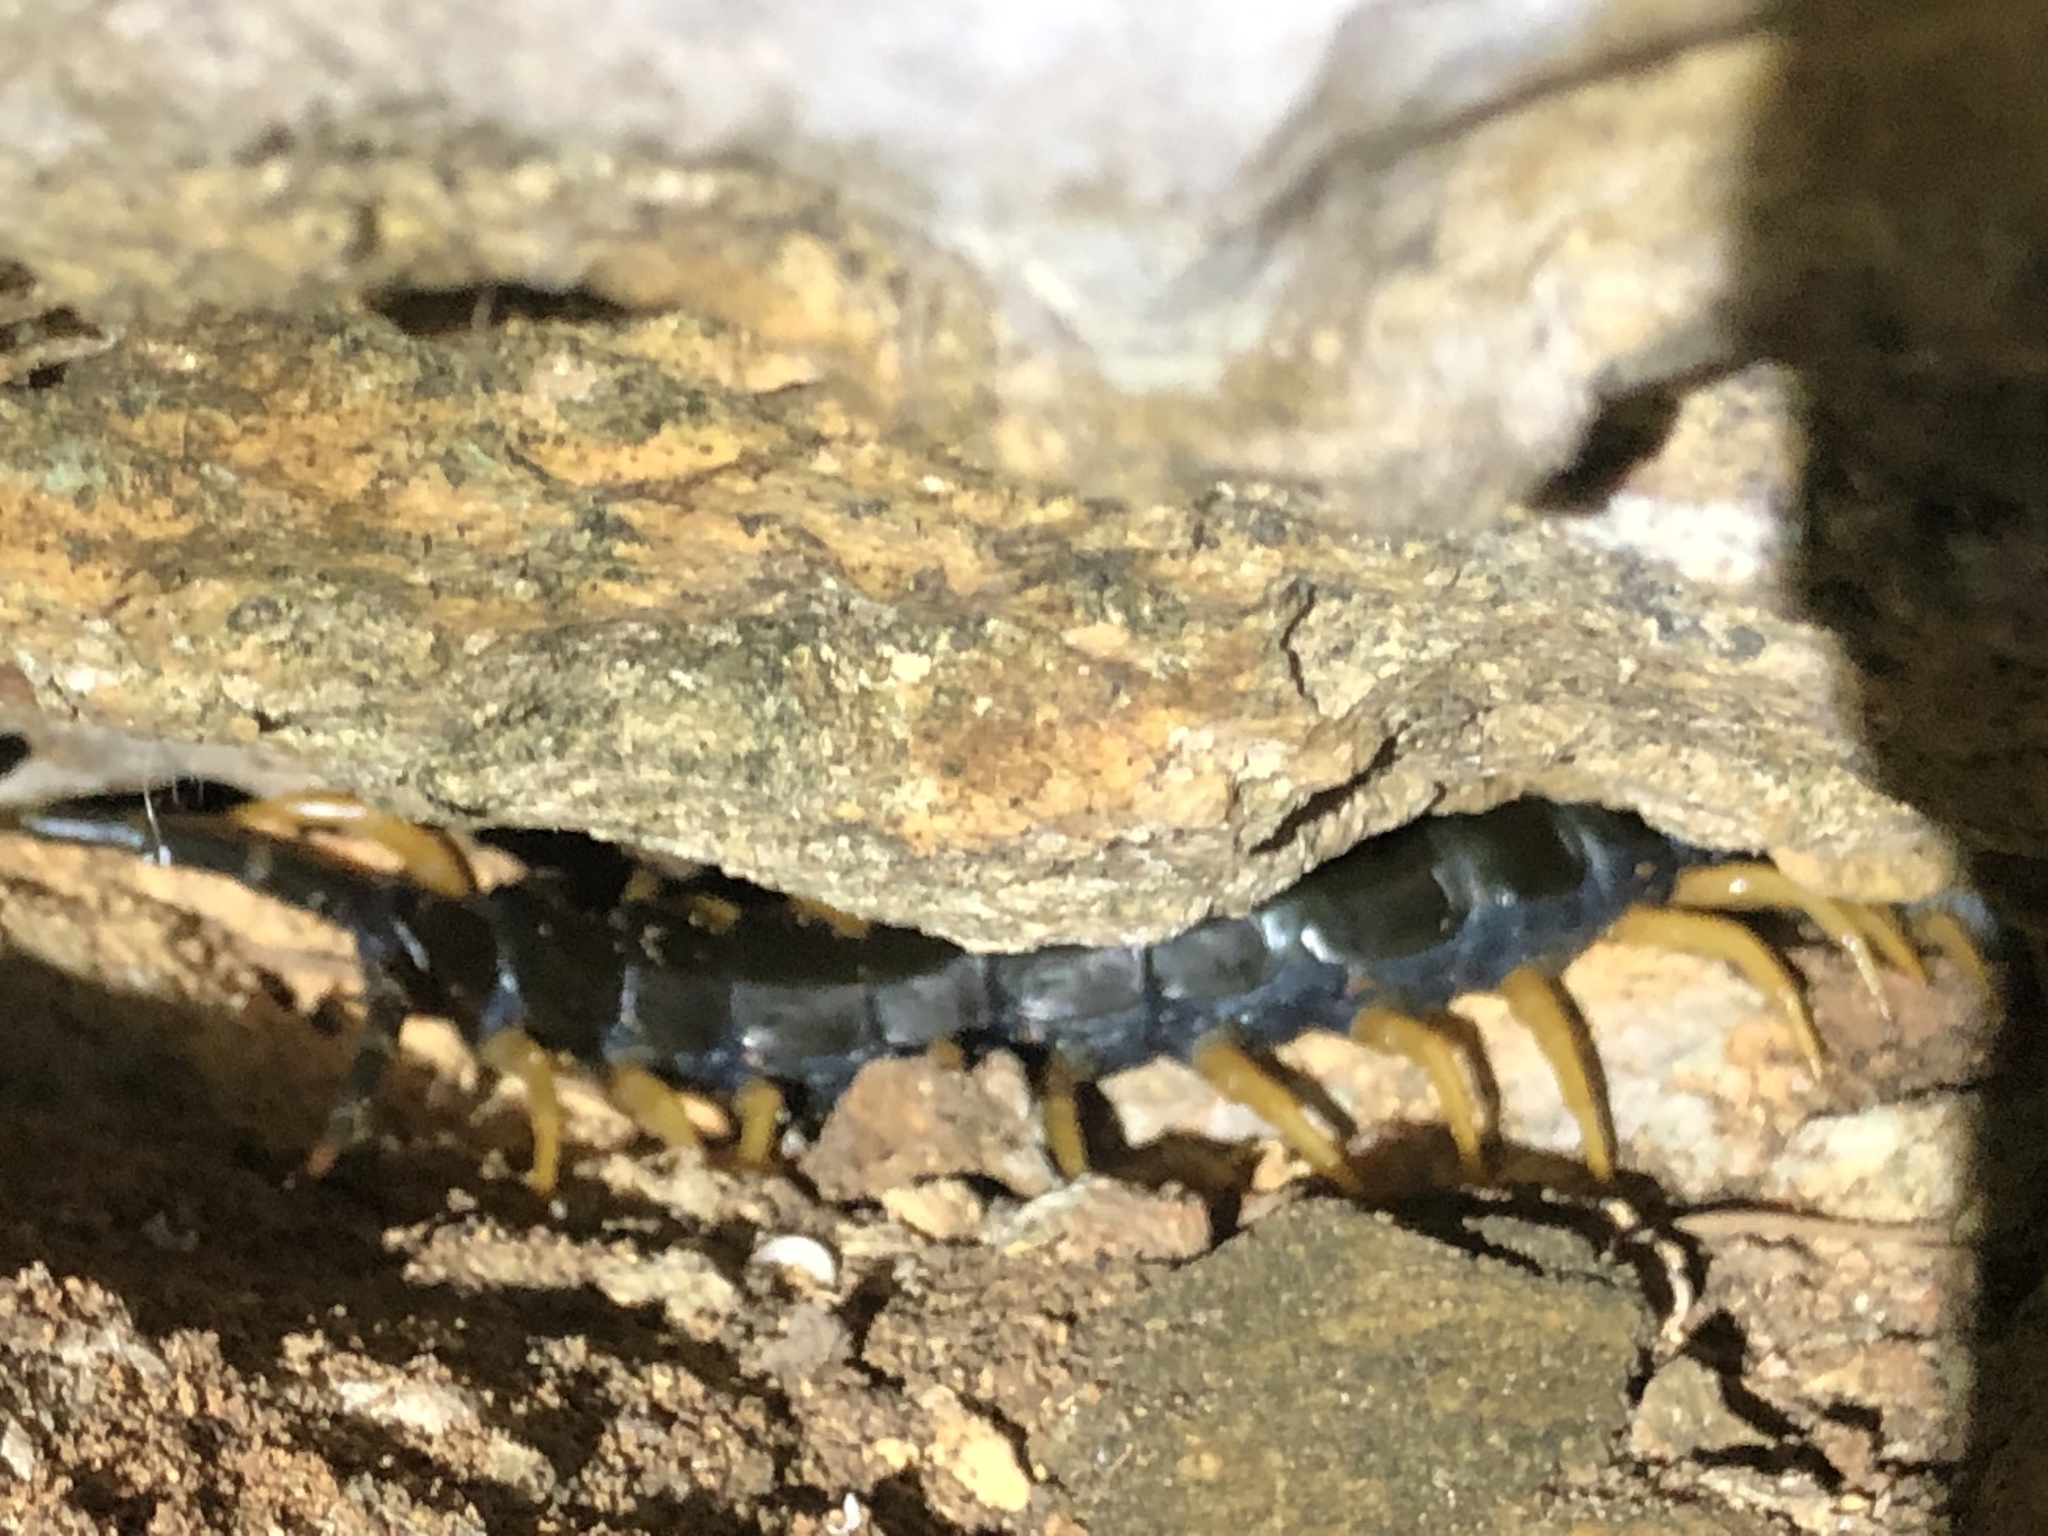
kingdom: Animalia
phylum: Arthropoda
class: Chilopoda
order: Scolopendromorpha
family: Scolopendridae
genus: Scolopendra
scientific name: Scolopendra heros
